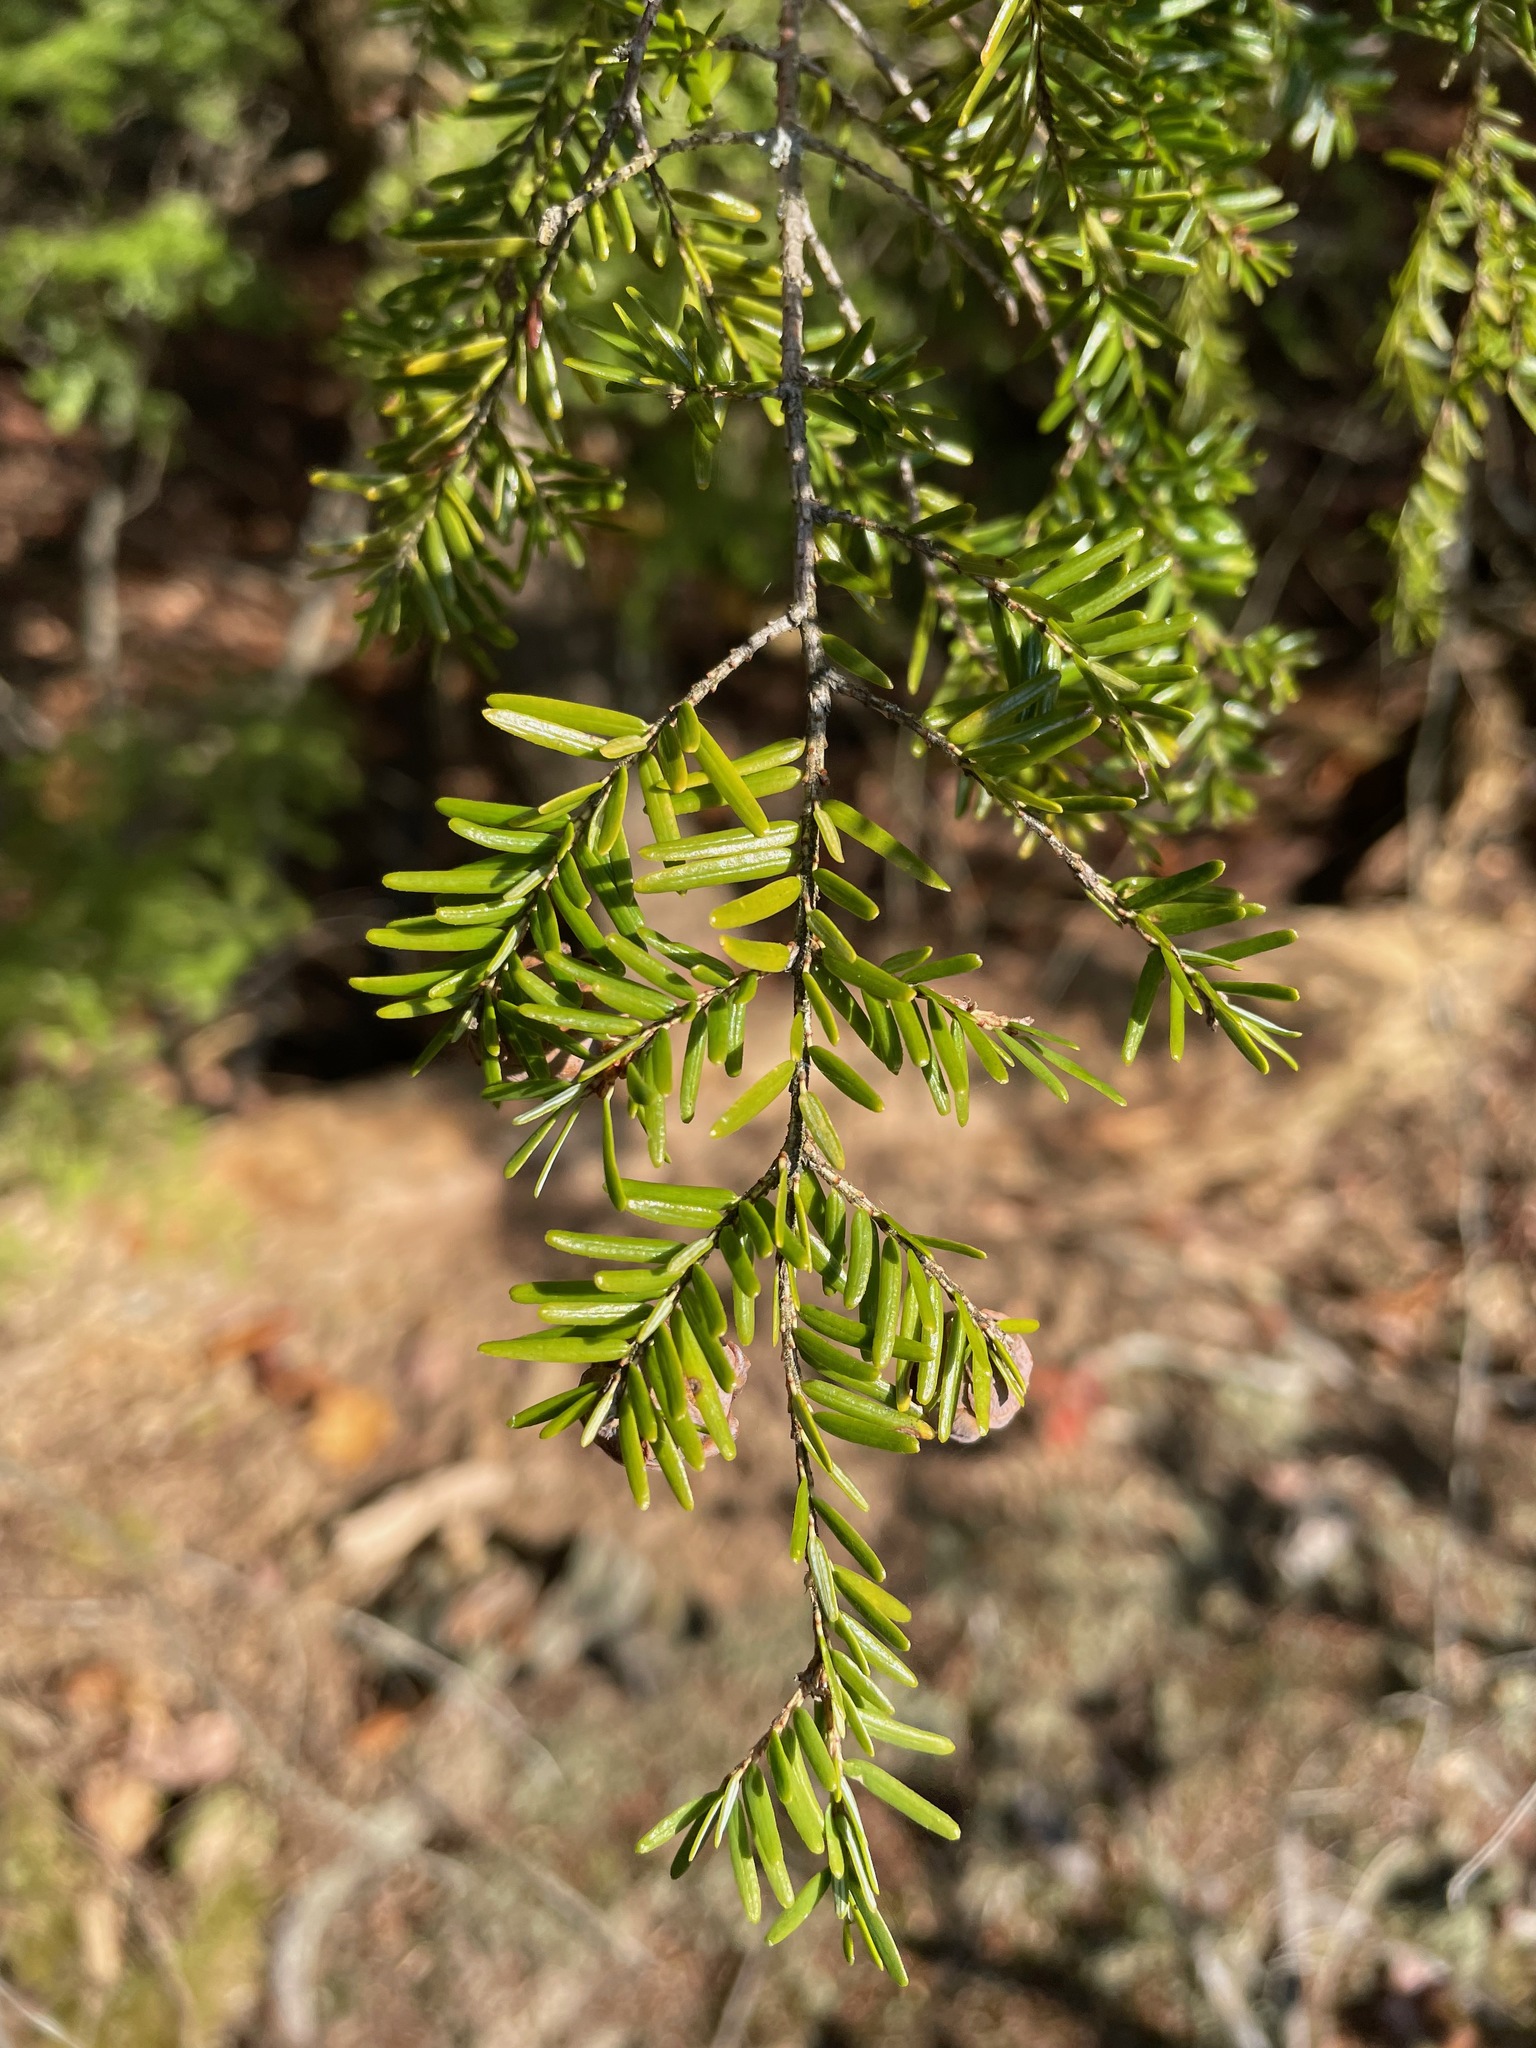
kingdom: Plantae
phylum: Tracheophyta
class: Pinopsida
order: Pinales
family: Pinaceae
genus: Tsuga
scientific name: Tsuga canadensis
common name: Eastern hemlock
